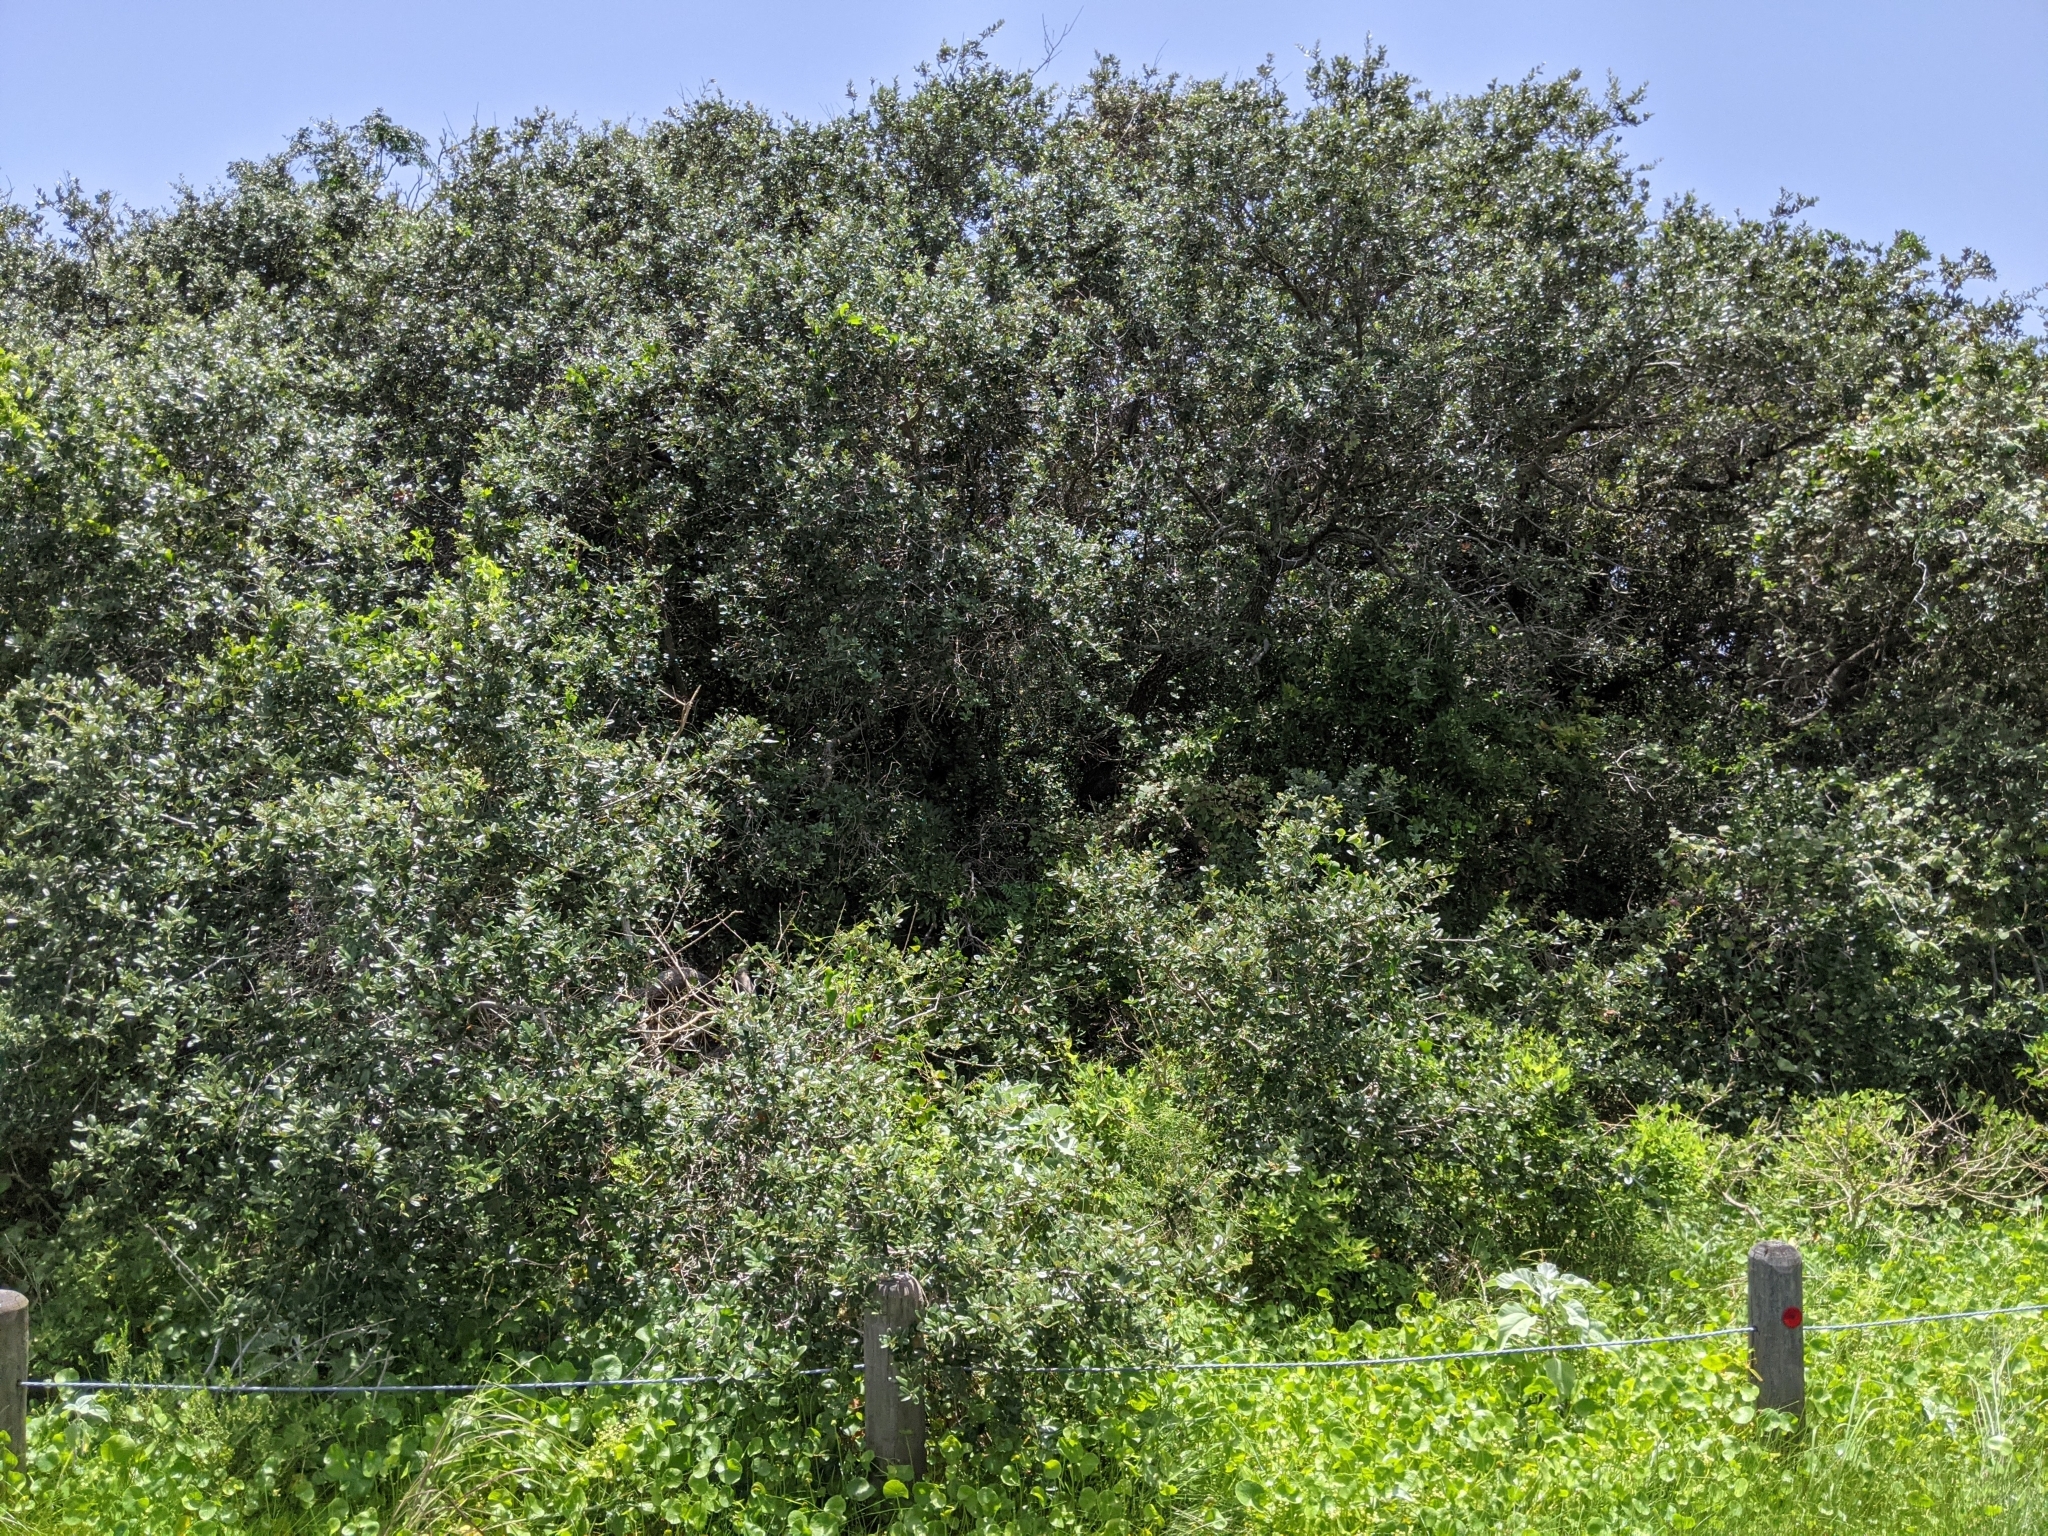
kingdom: Plantae
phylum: Tracheophyta
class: Magnoliopsida
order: Fagales
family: Fagaceae
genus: Quercus
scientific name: Quercus fusiformis
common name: Texas live oak
